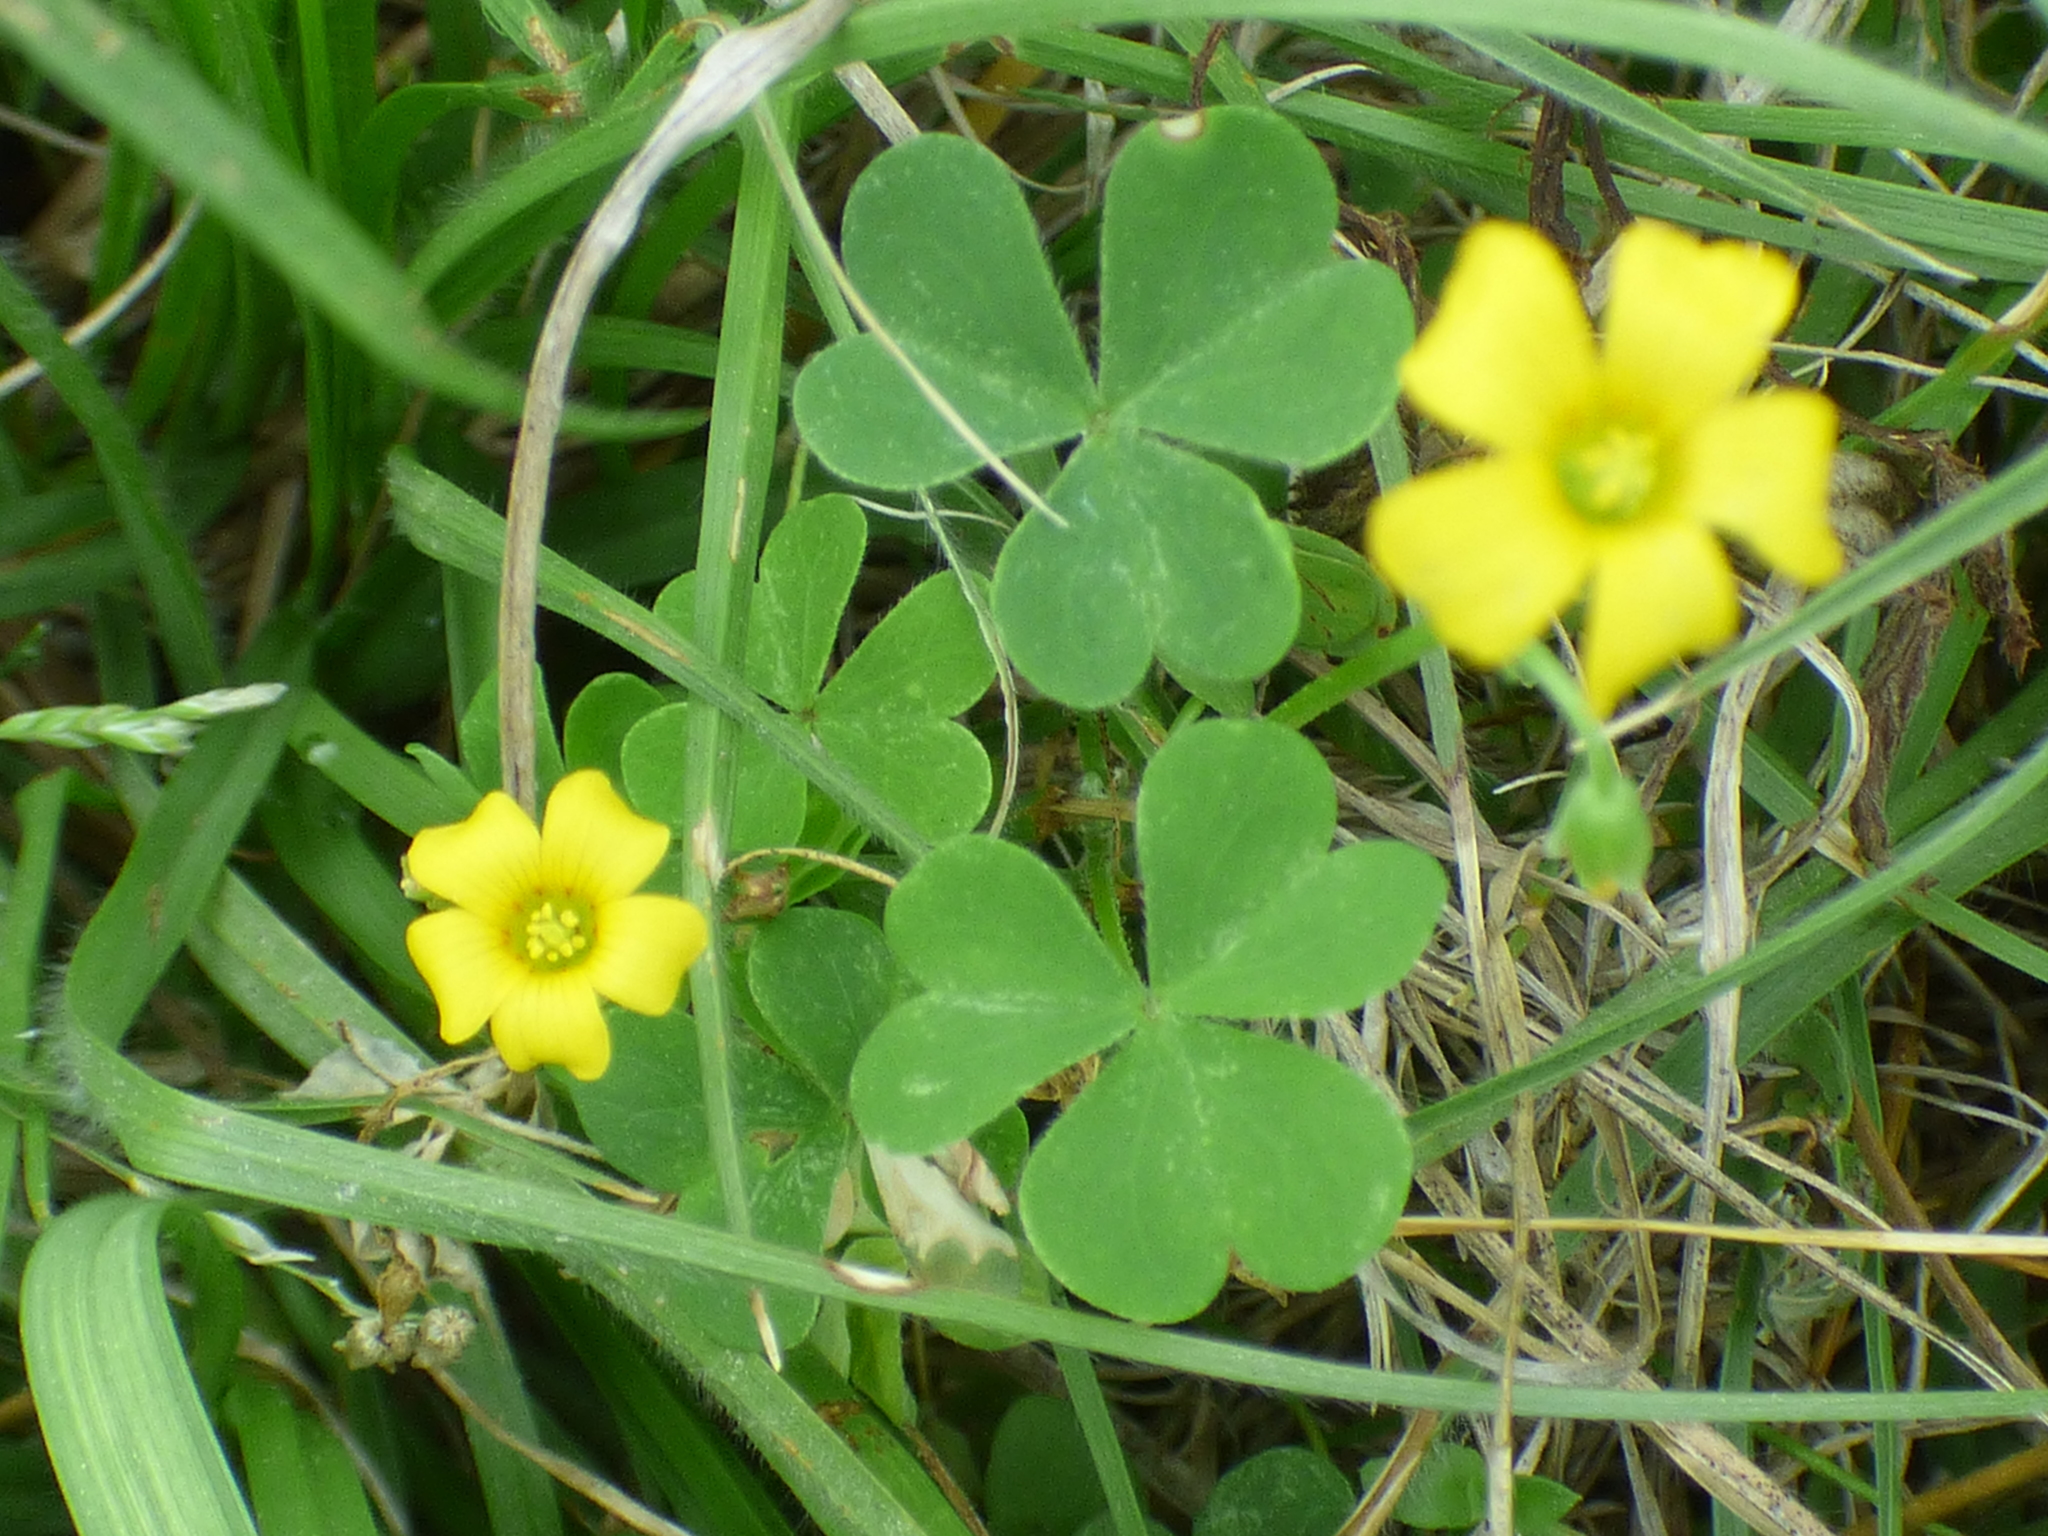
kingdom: Plantae
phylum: Tracheophyta
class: Magnoliopsida
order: Oxalidales
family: Oxalidaceae
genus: Oxalis
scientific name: Oxalis dillenii
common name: Sussex yellow-sorrel
